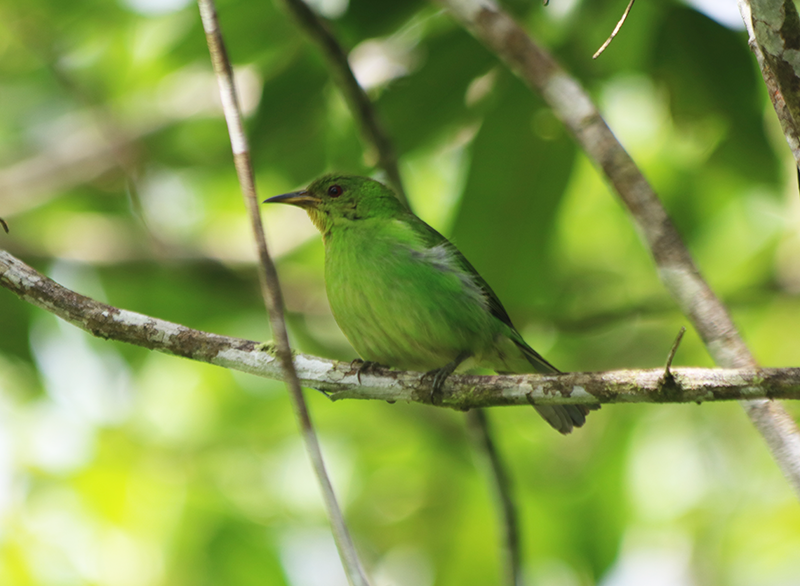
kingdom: Animalia
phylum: Chordata
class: Aves
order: Passeriformes
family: Thraupidae
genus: Chlorophanes
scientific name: Chlorophanes spiza
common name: Green honeycreeper
